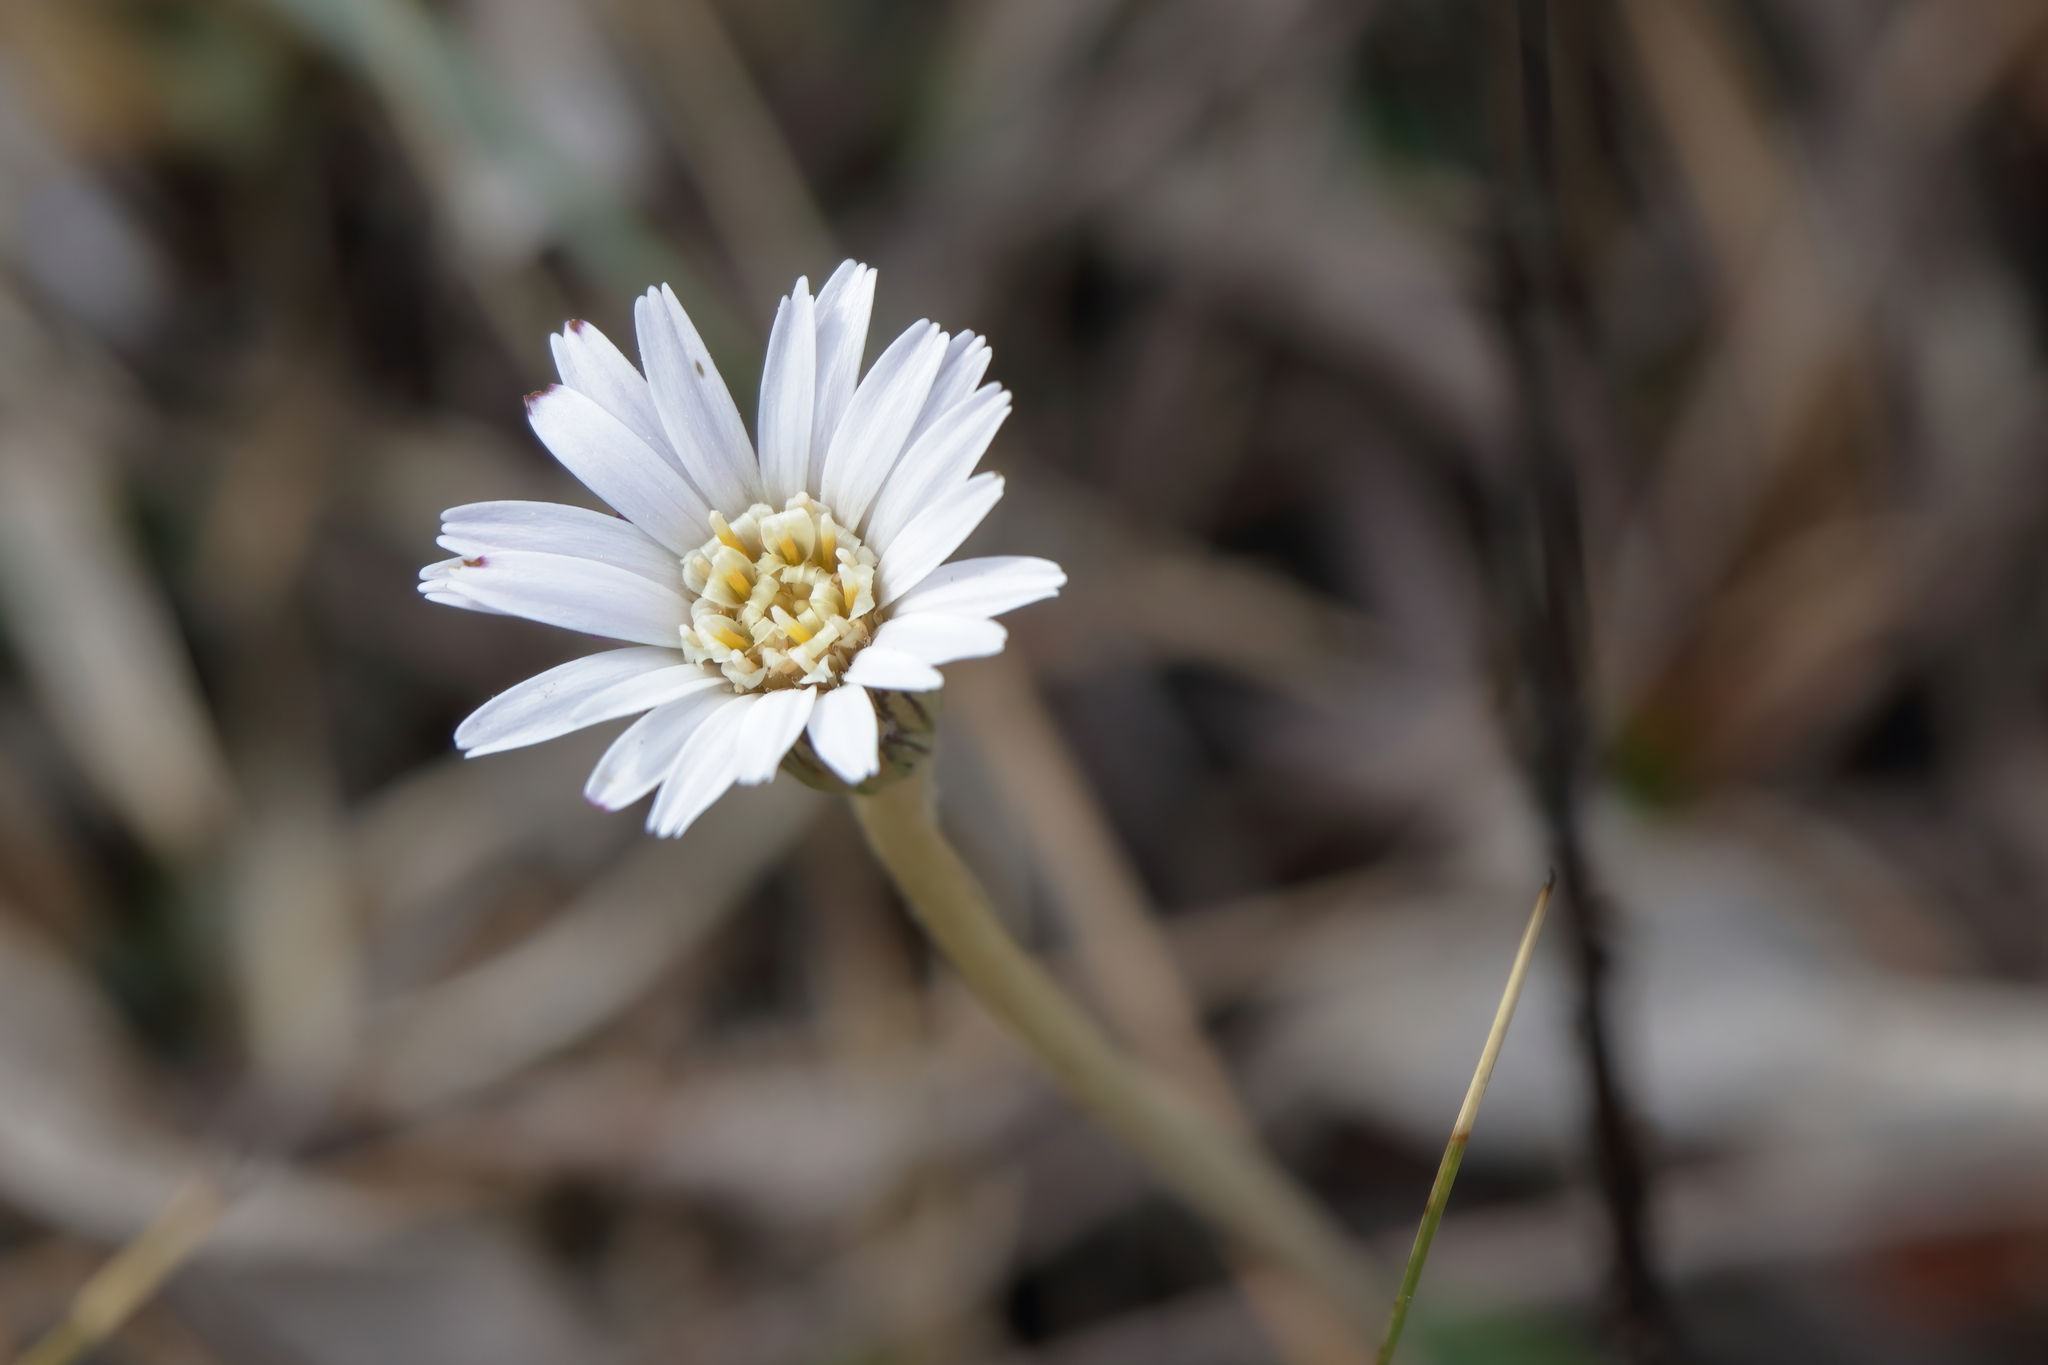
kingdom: Plantae
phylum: Tracheophyta
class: Magnoliopsida
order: Asterales
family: Asteraceae
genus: Chaptalia
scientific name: Chaptalia tomentosa
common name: Woolly sunbonnet
